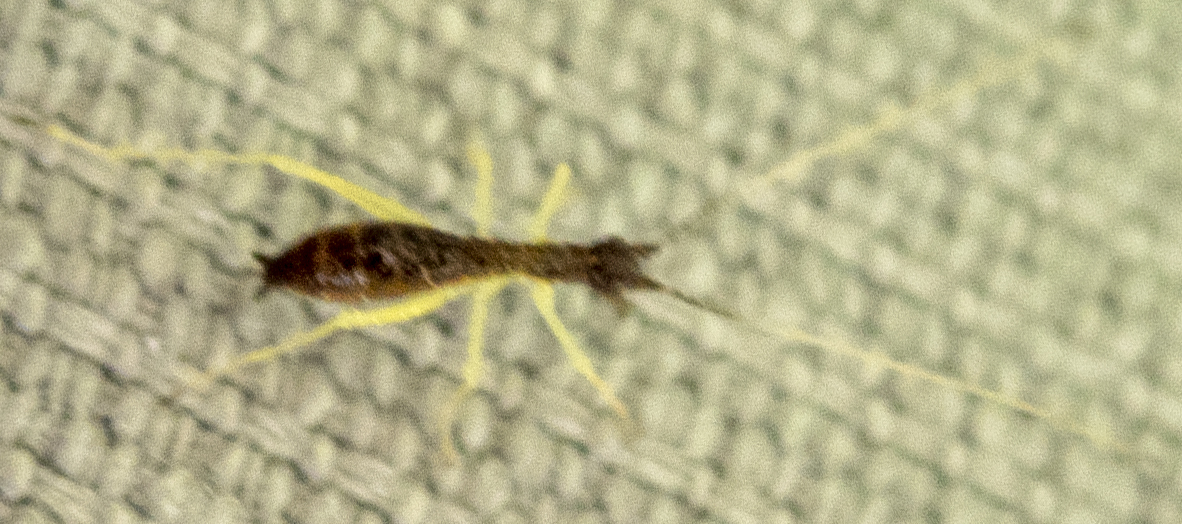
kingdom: Animalia
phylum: Arthropoda
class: Insecta
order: Orthoptera
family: Gryllidae
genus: Neoxabea
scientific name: Neoxabea bipunctata
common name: Two-spotted tree cricket
